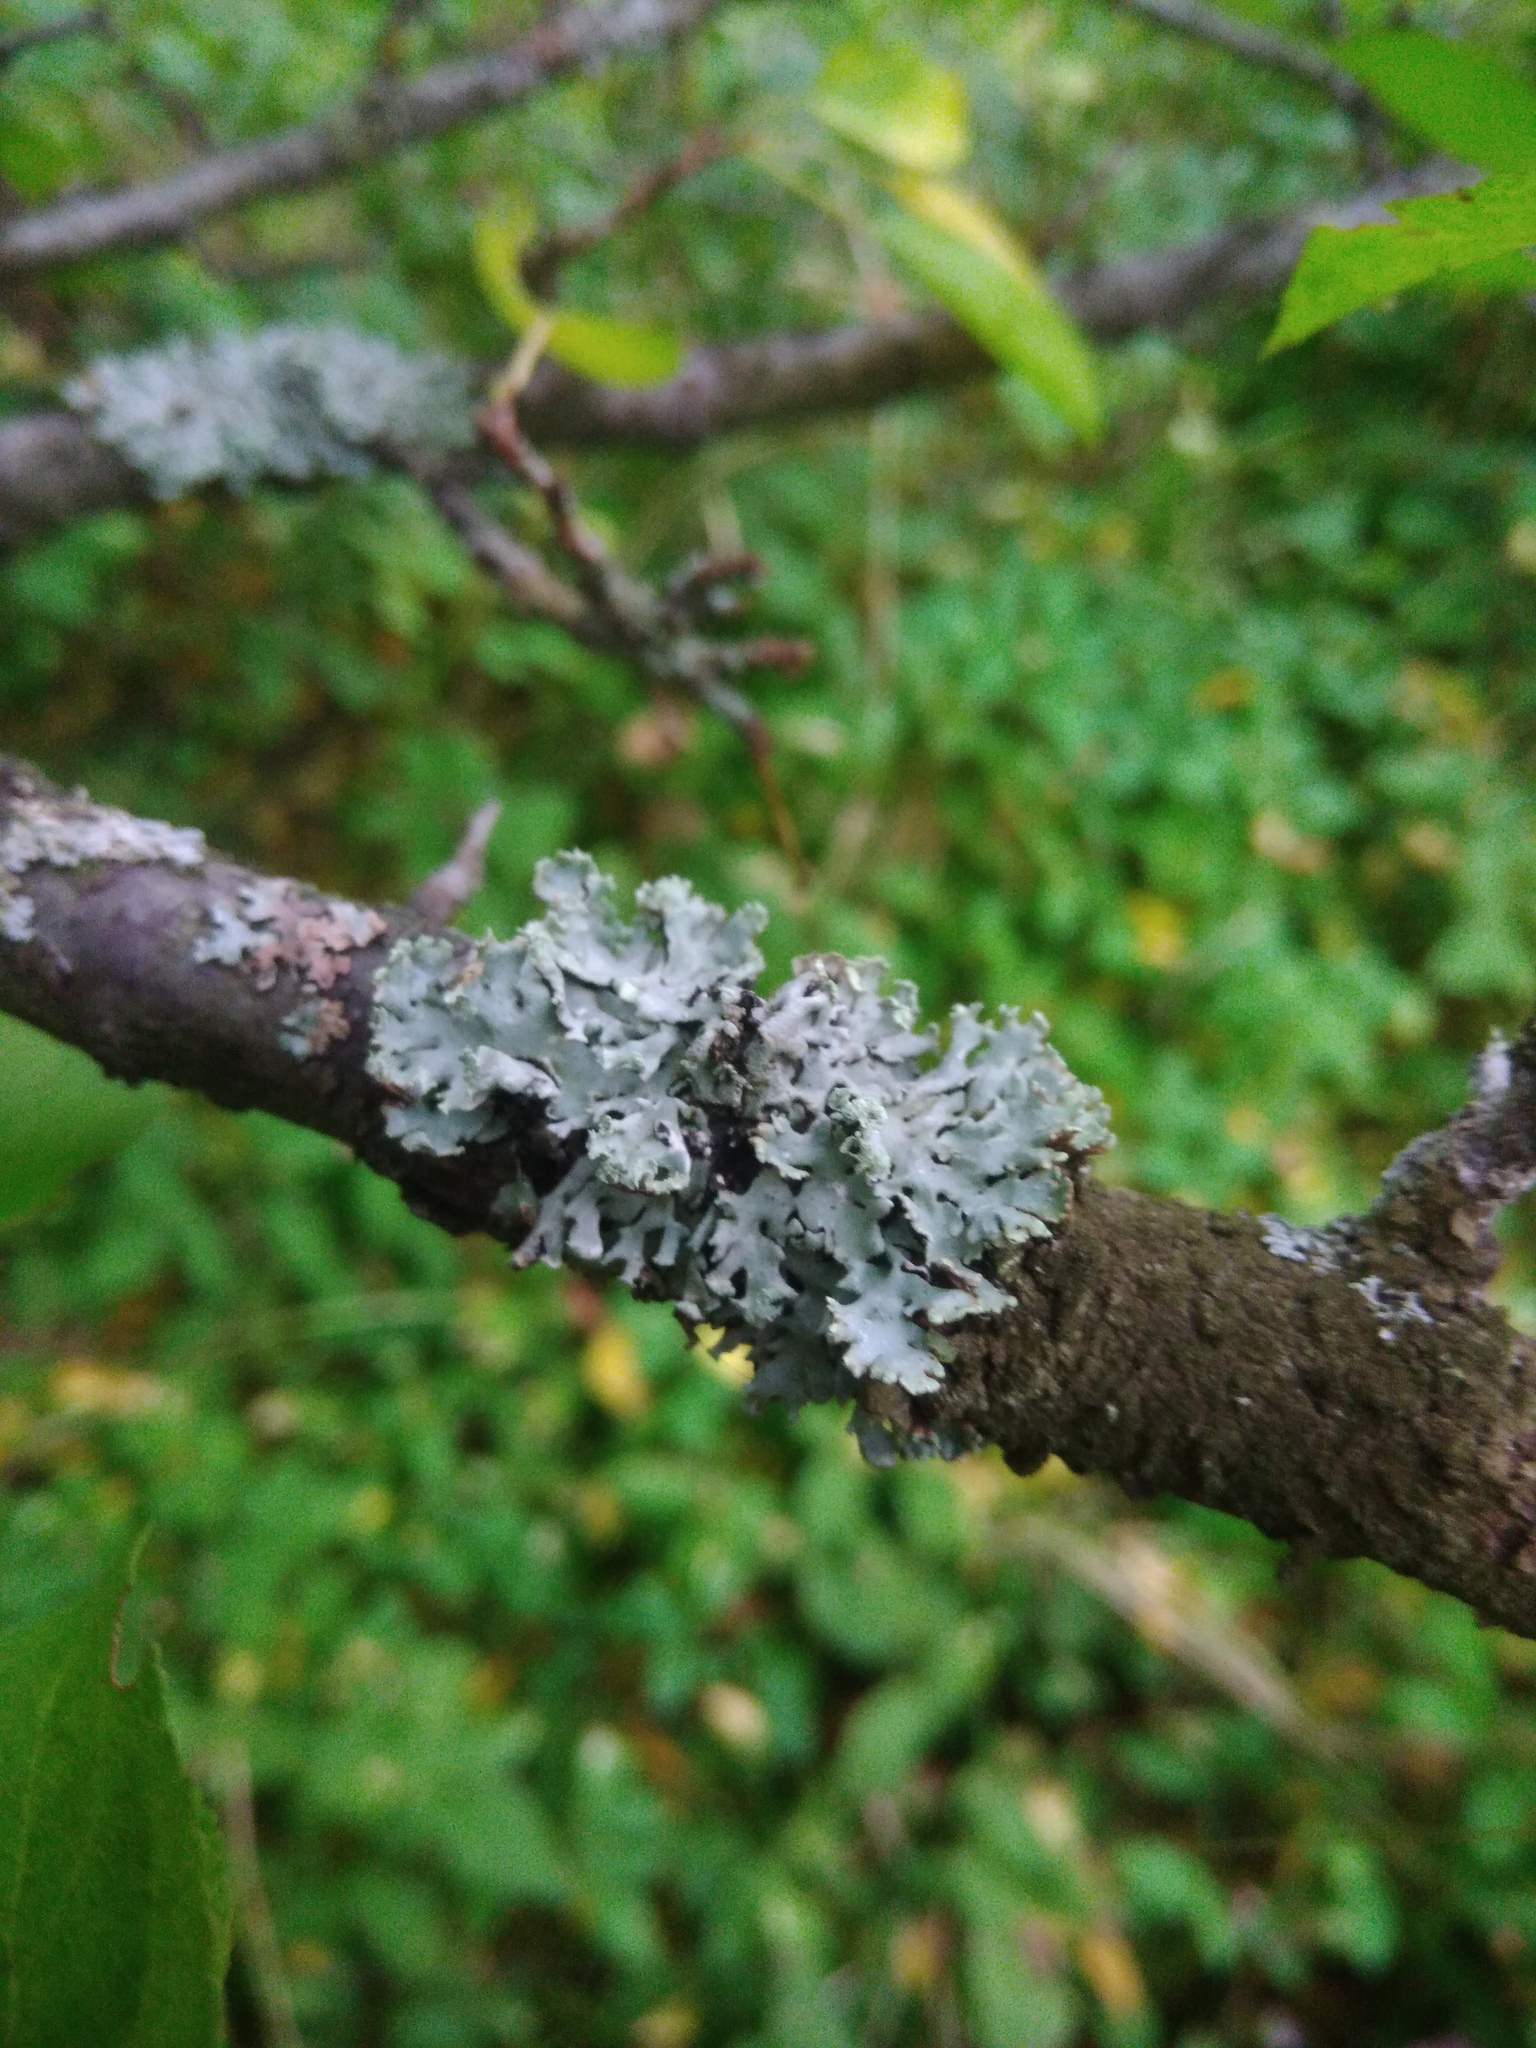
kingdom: Fungi
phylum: Ascomycota
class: Lecanoromycetes
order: Lecanorales
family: Parmeliaceae
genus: Hypogymnia
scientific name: Hypogymnia physodes
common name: Dark crottle
